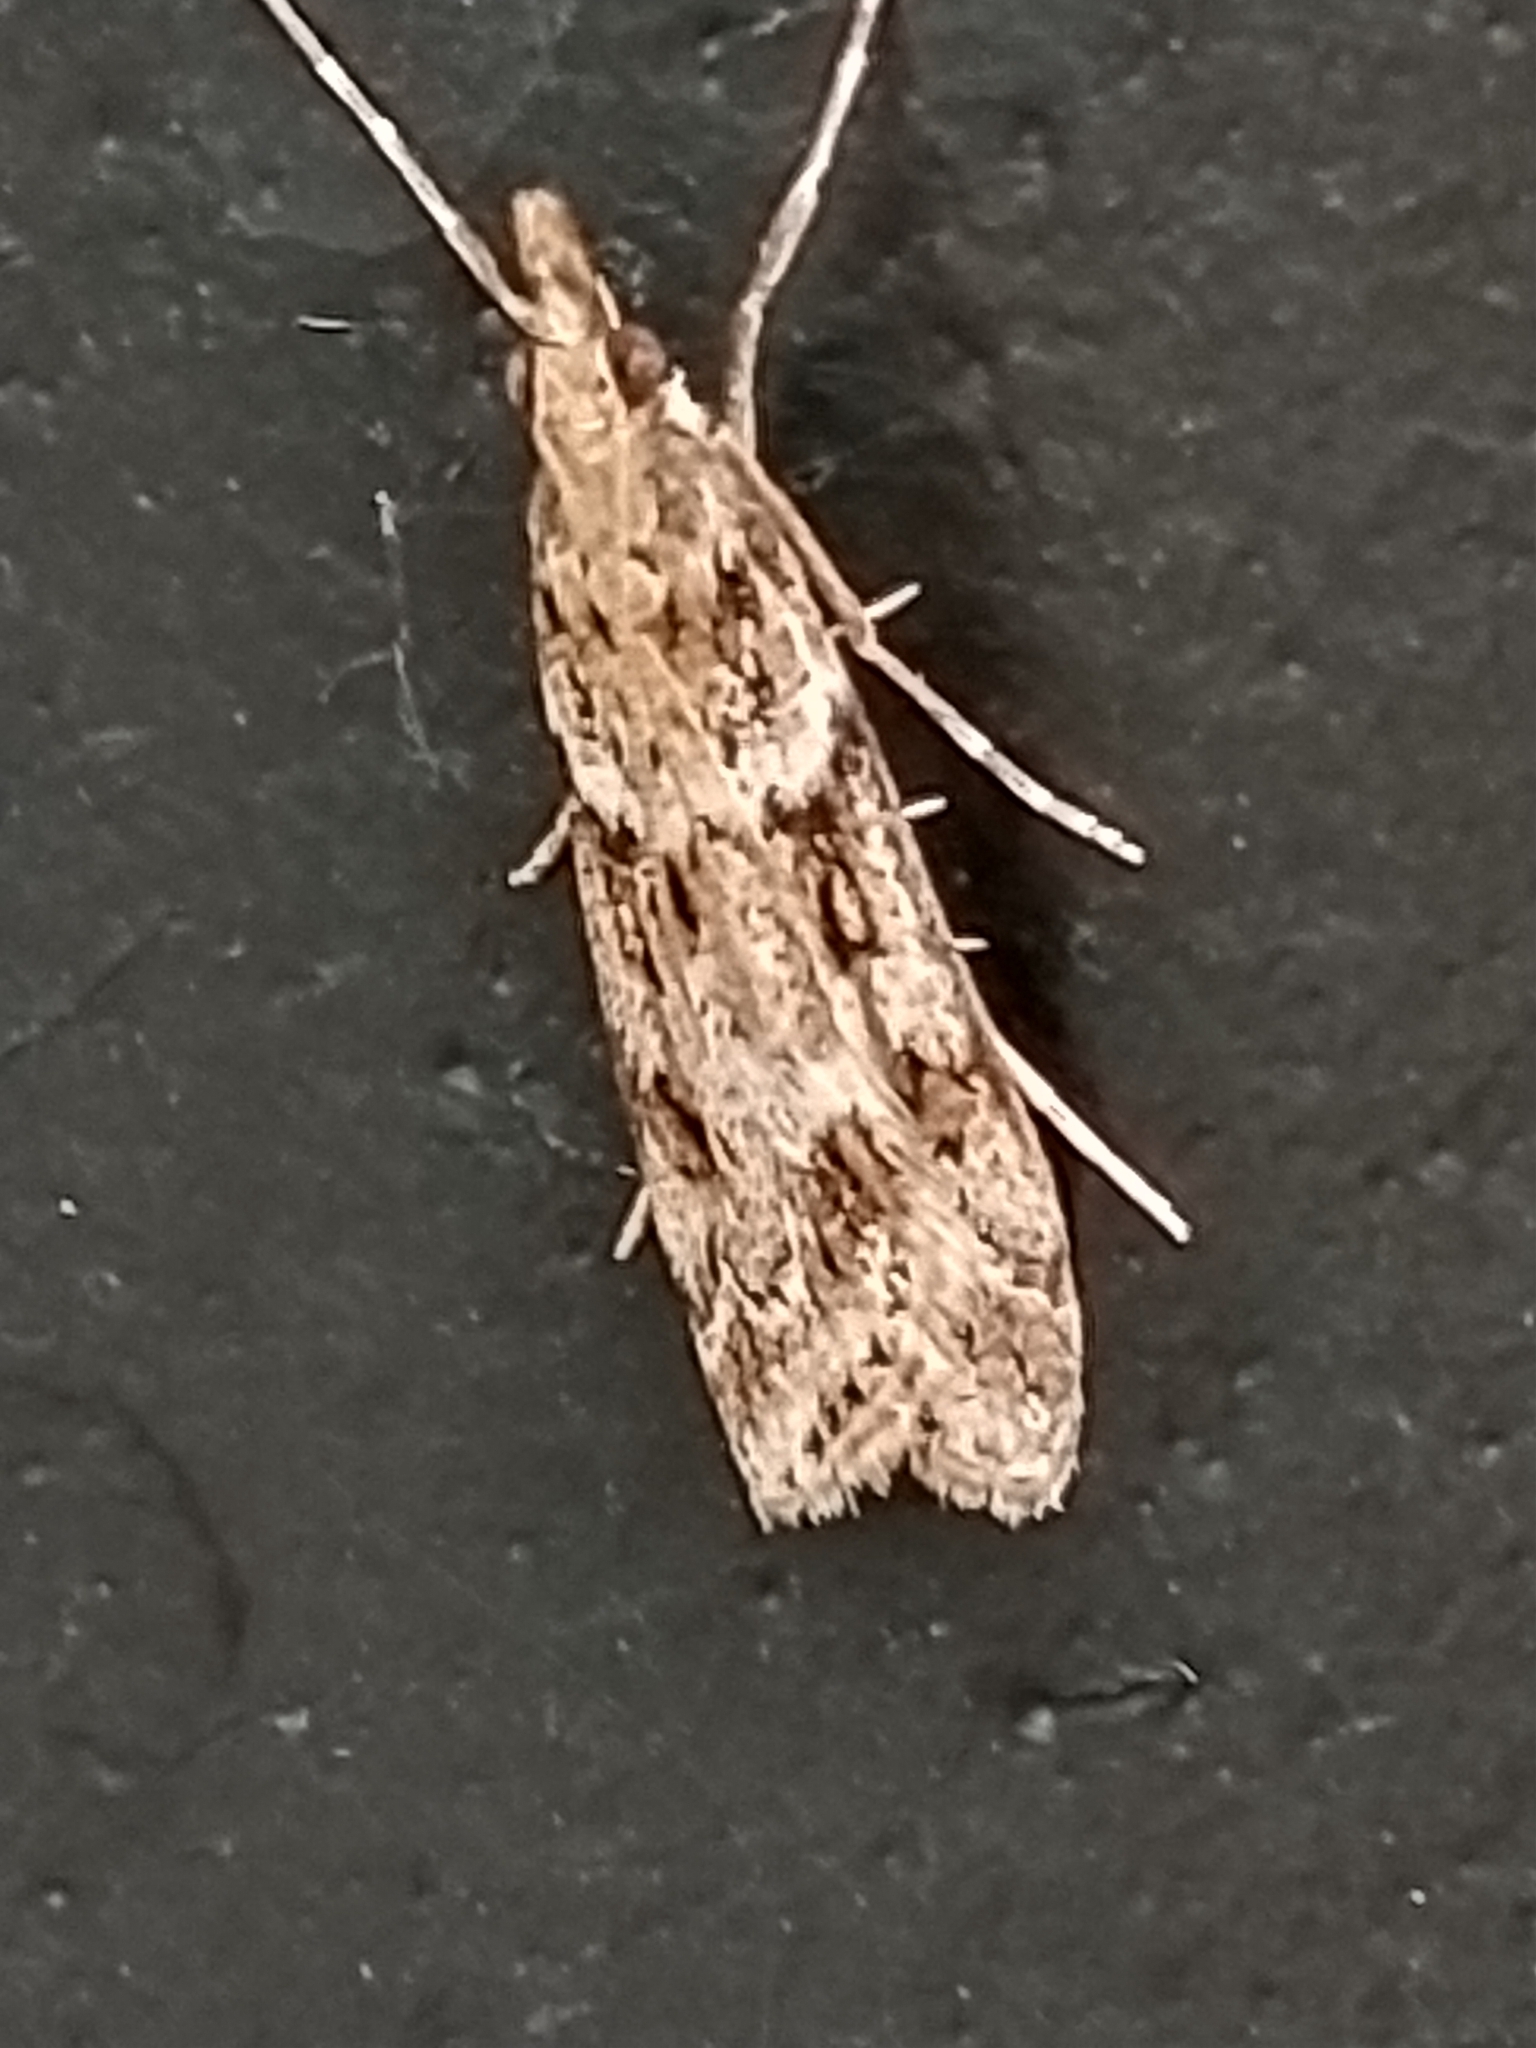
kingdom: Animalia
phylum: Arthropoda
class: Insecta
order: Lepidoptera
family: Crambidae
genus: Eudonia
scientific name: Eudonia angustea
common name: Narrow-winged grey
